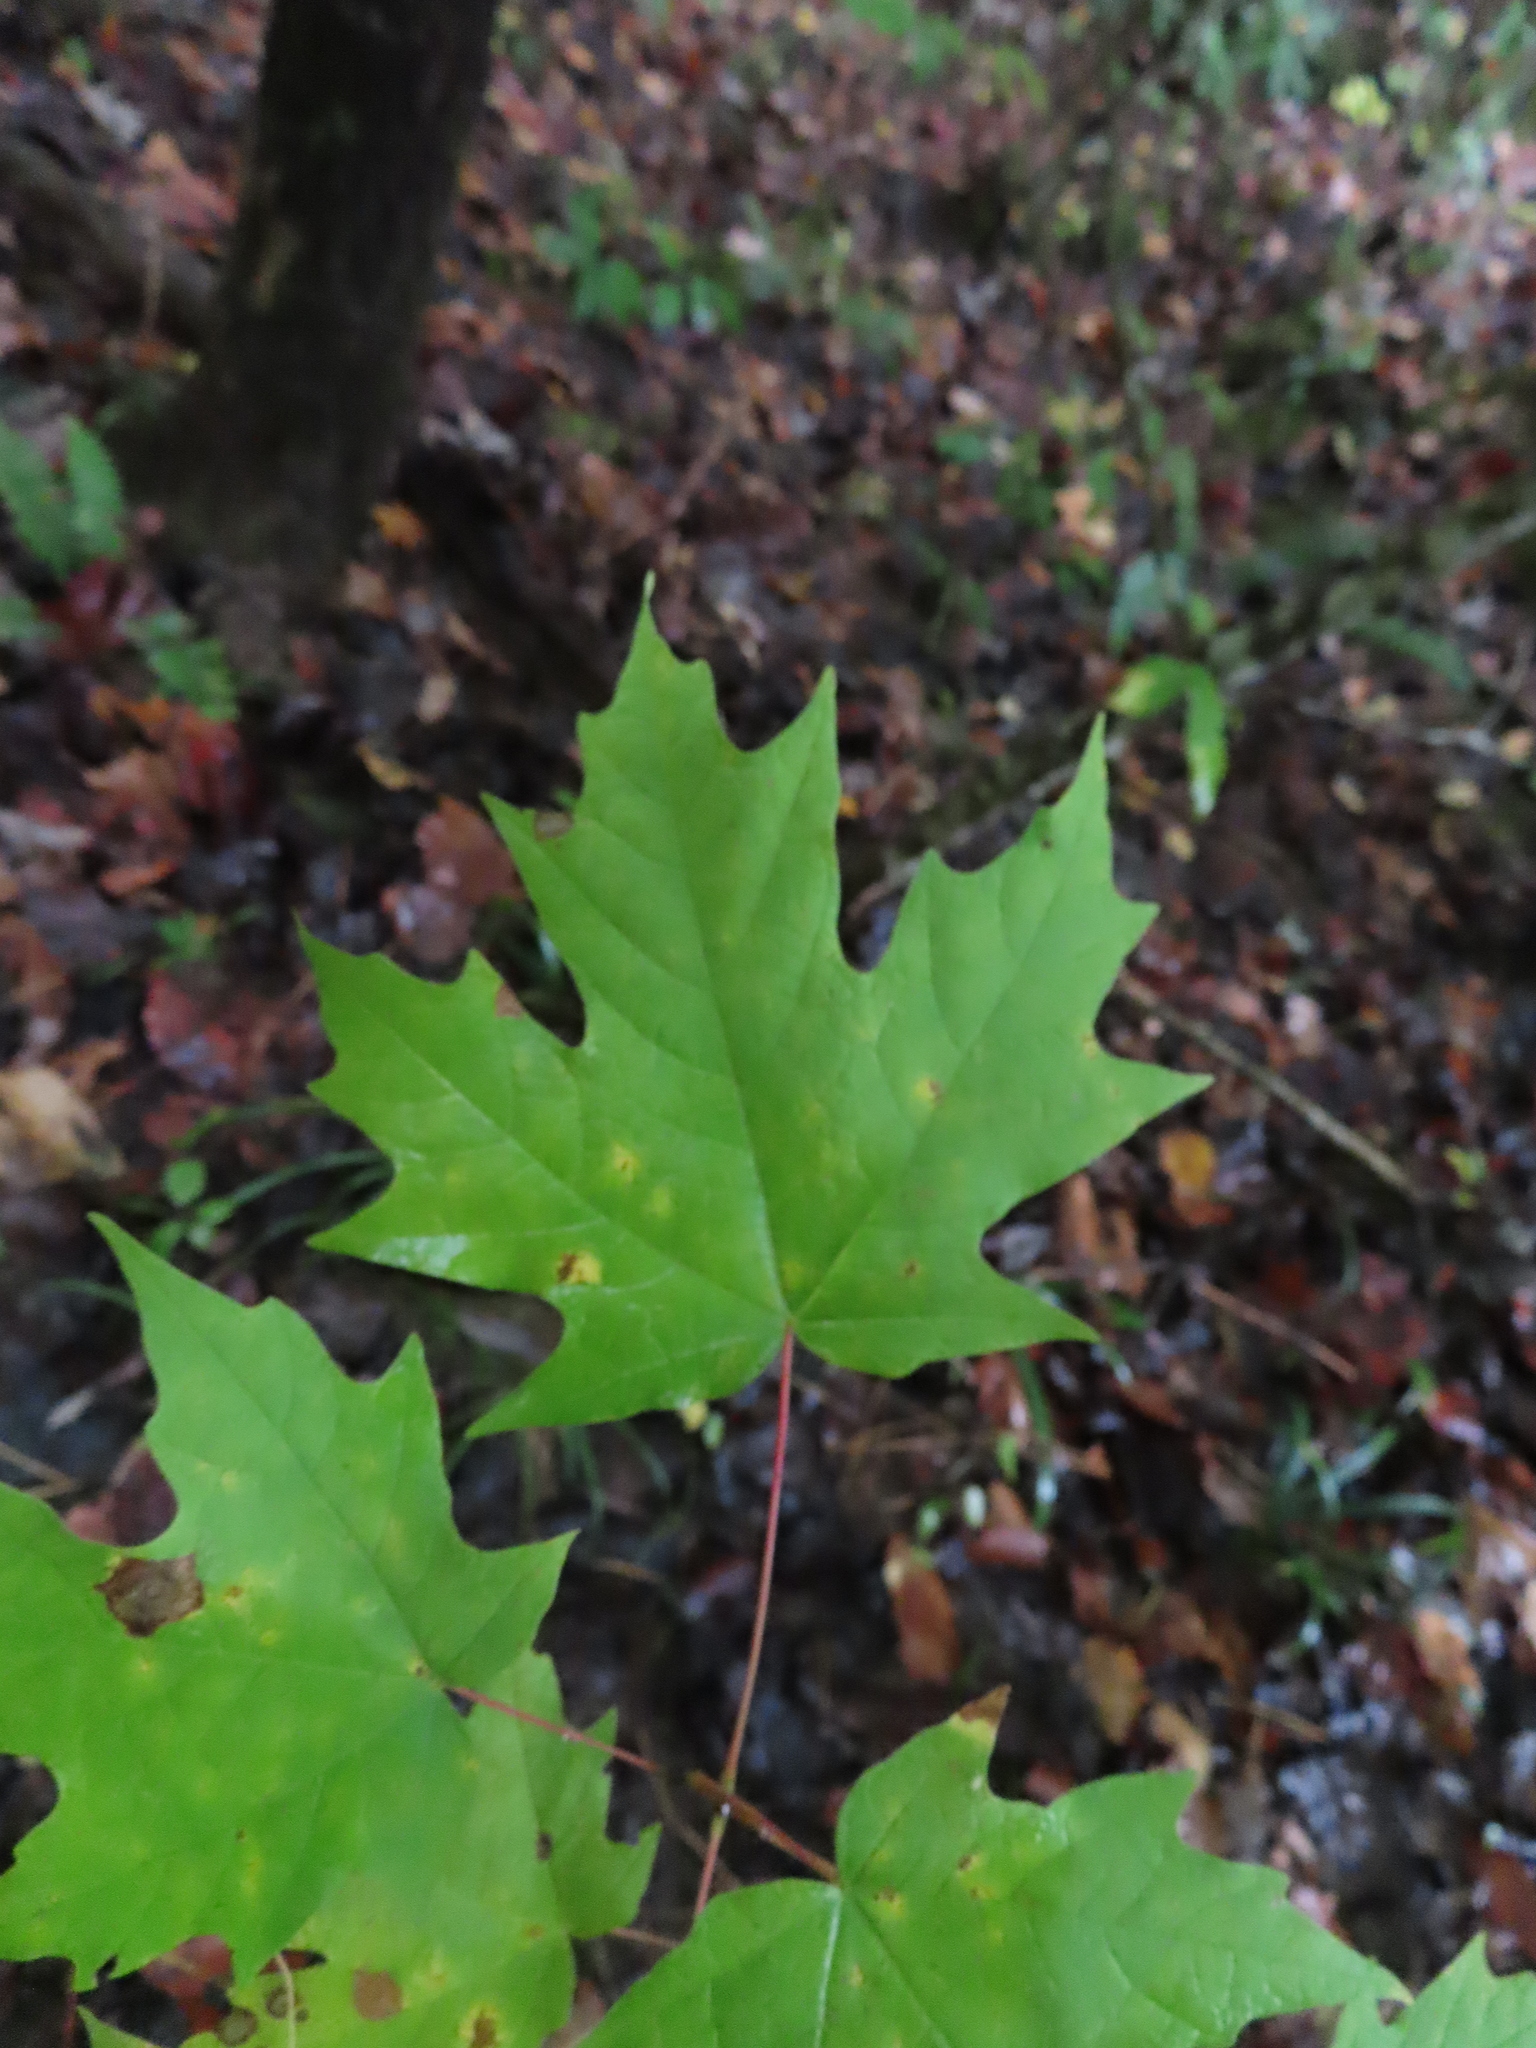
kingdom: Plantae
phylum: Tracheophyta
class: Magnoliopsida
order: Sapindales
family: Sapindaceae
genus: Acer
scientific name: Acer saccharum
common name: Sugar maple
